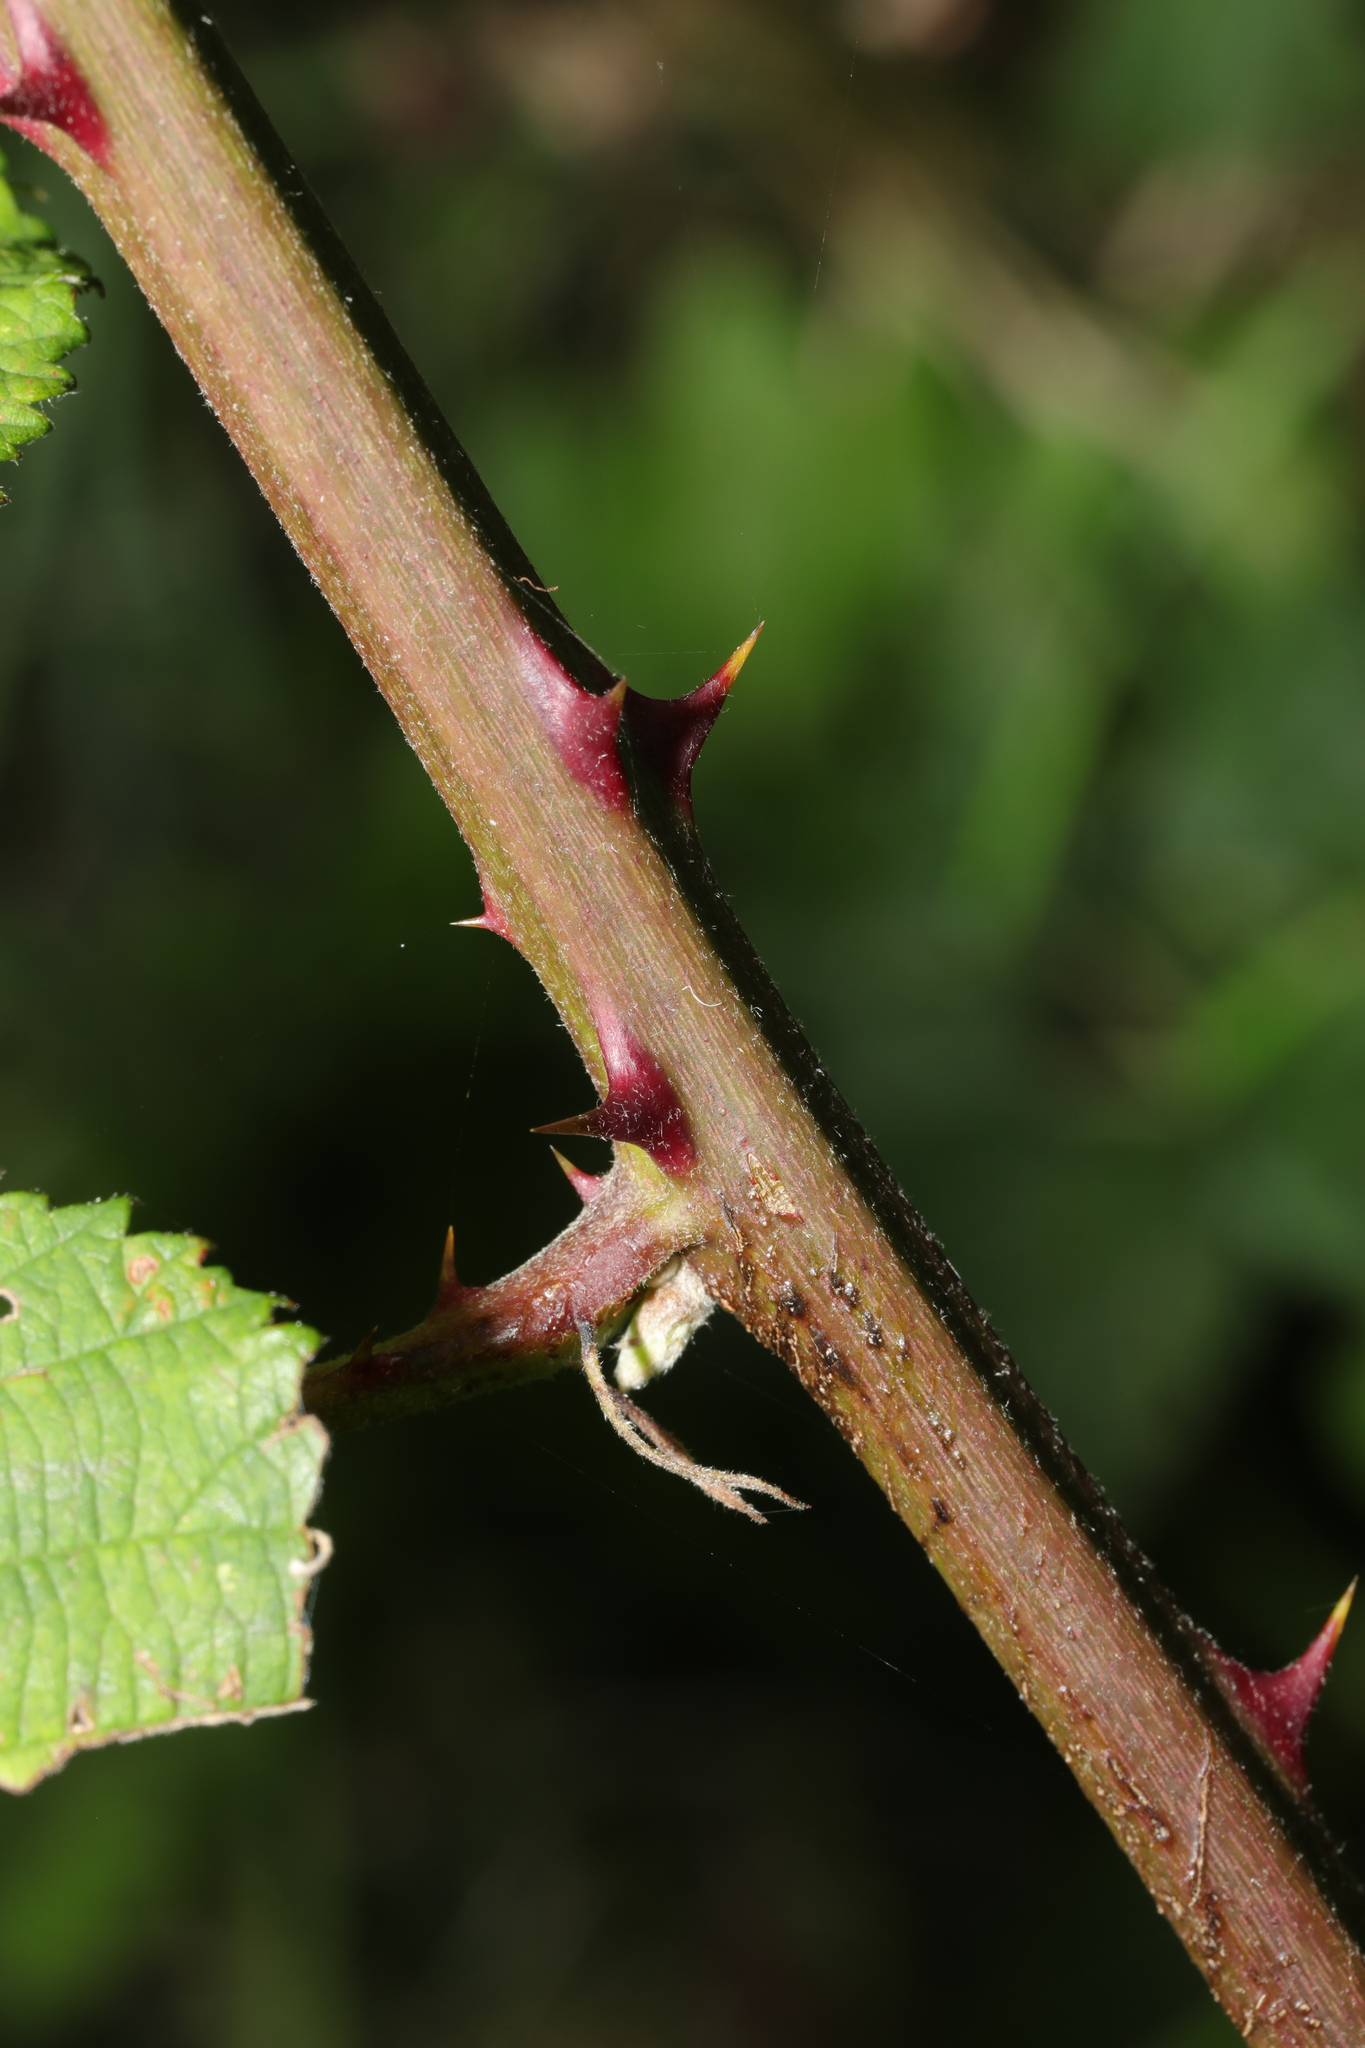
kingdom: Plantae
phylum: Tracheophyta
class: Magnoliopsida
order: Rosales
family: Rosaceae
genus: Rubus
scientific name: Rubus fruticosus
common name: Blackberry, bramble
